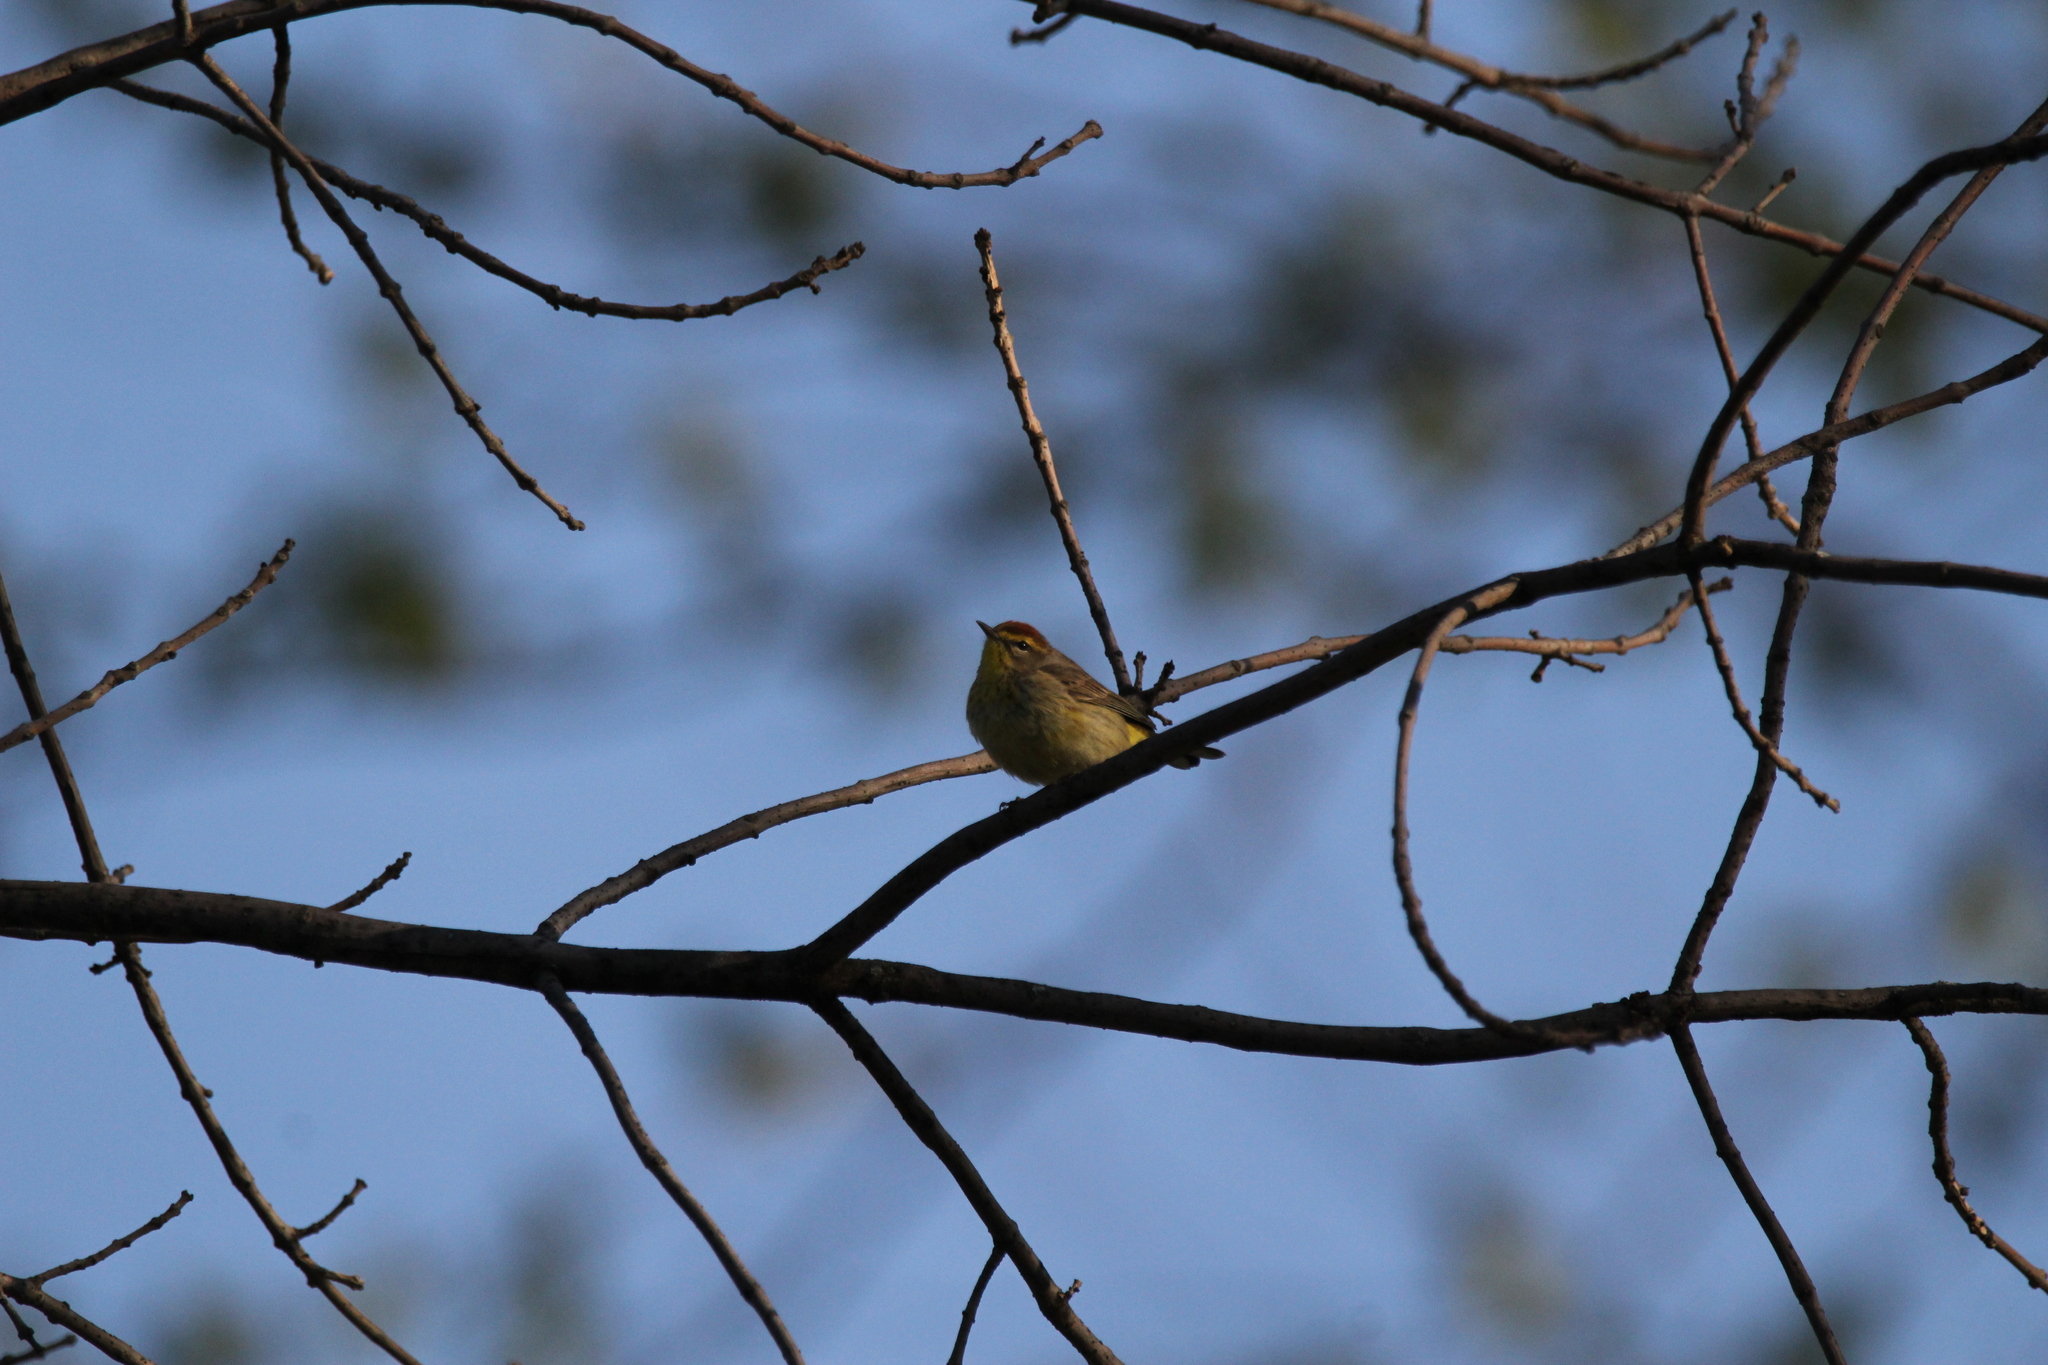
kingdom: Animalia
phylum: Chordata
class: Aves
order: Passeriformes
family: Parulidae
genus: Setophaga
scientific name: Setophaga palmarum
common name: Palm warbler
